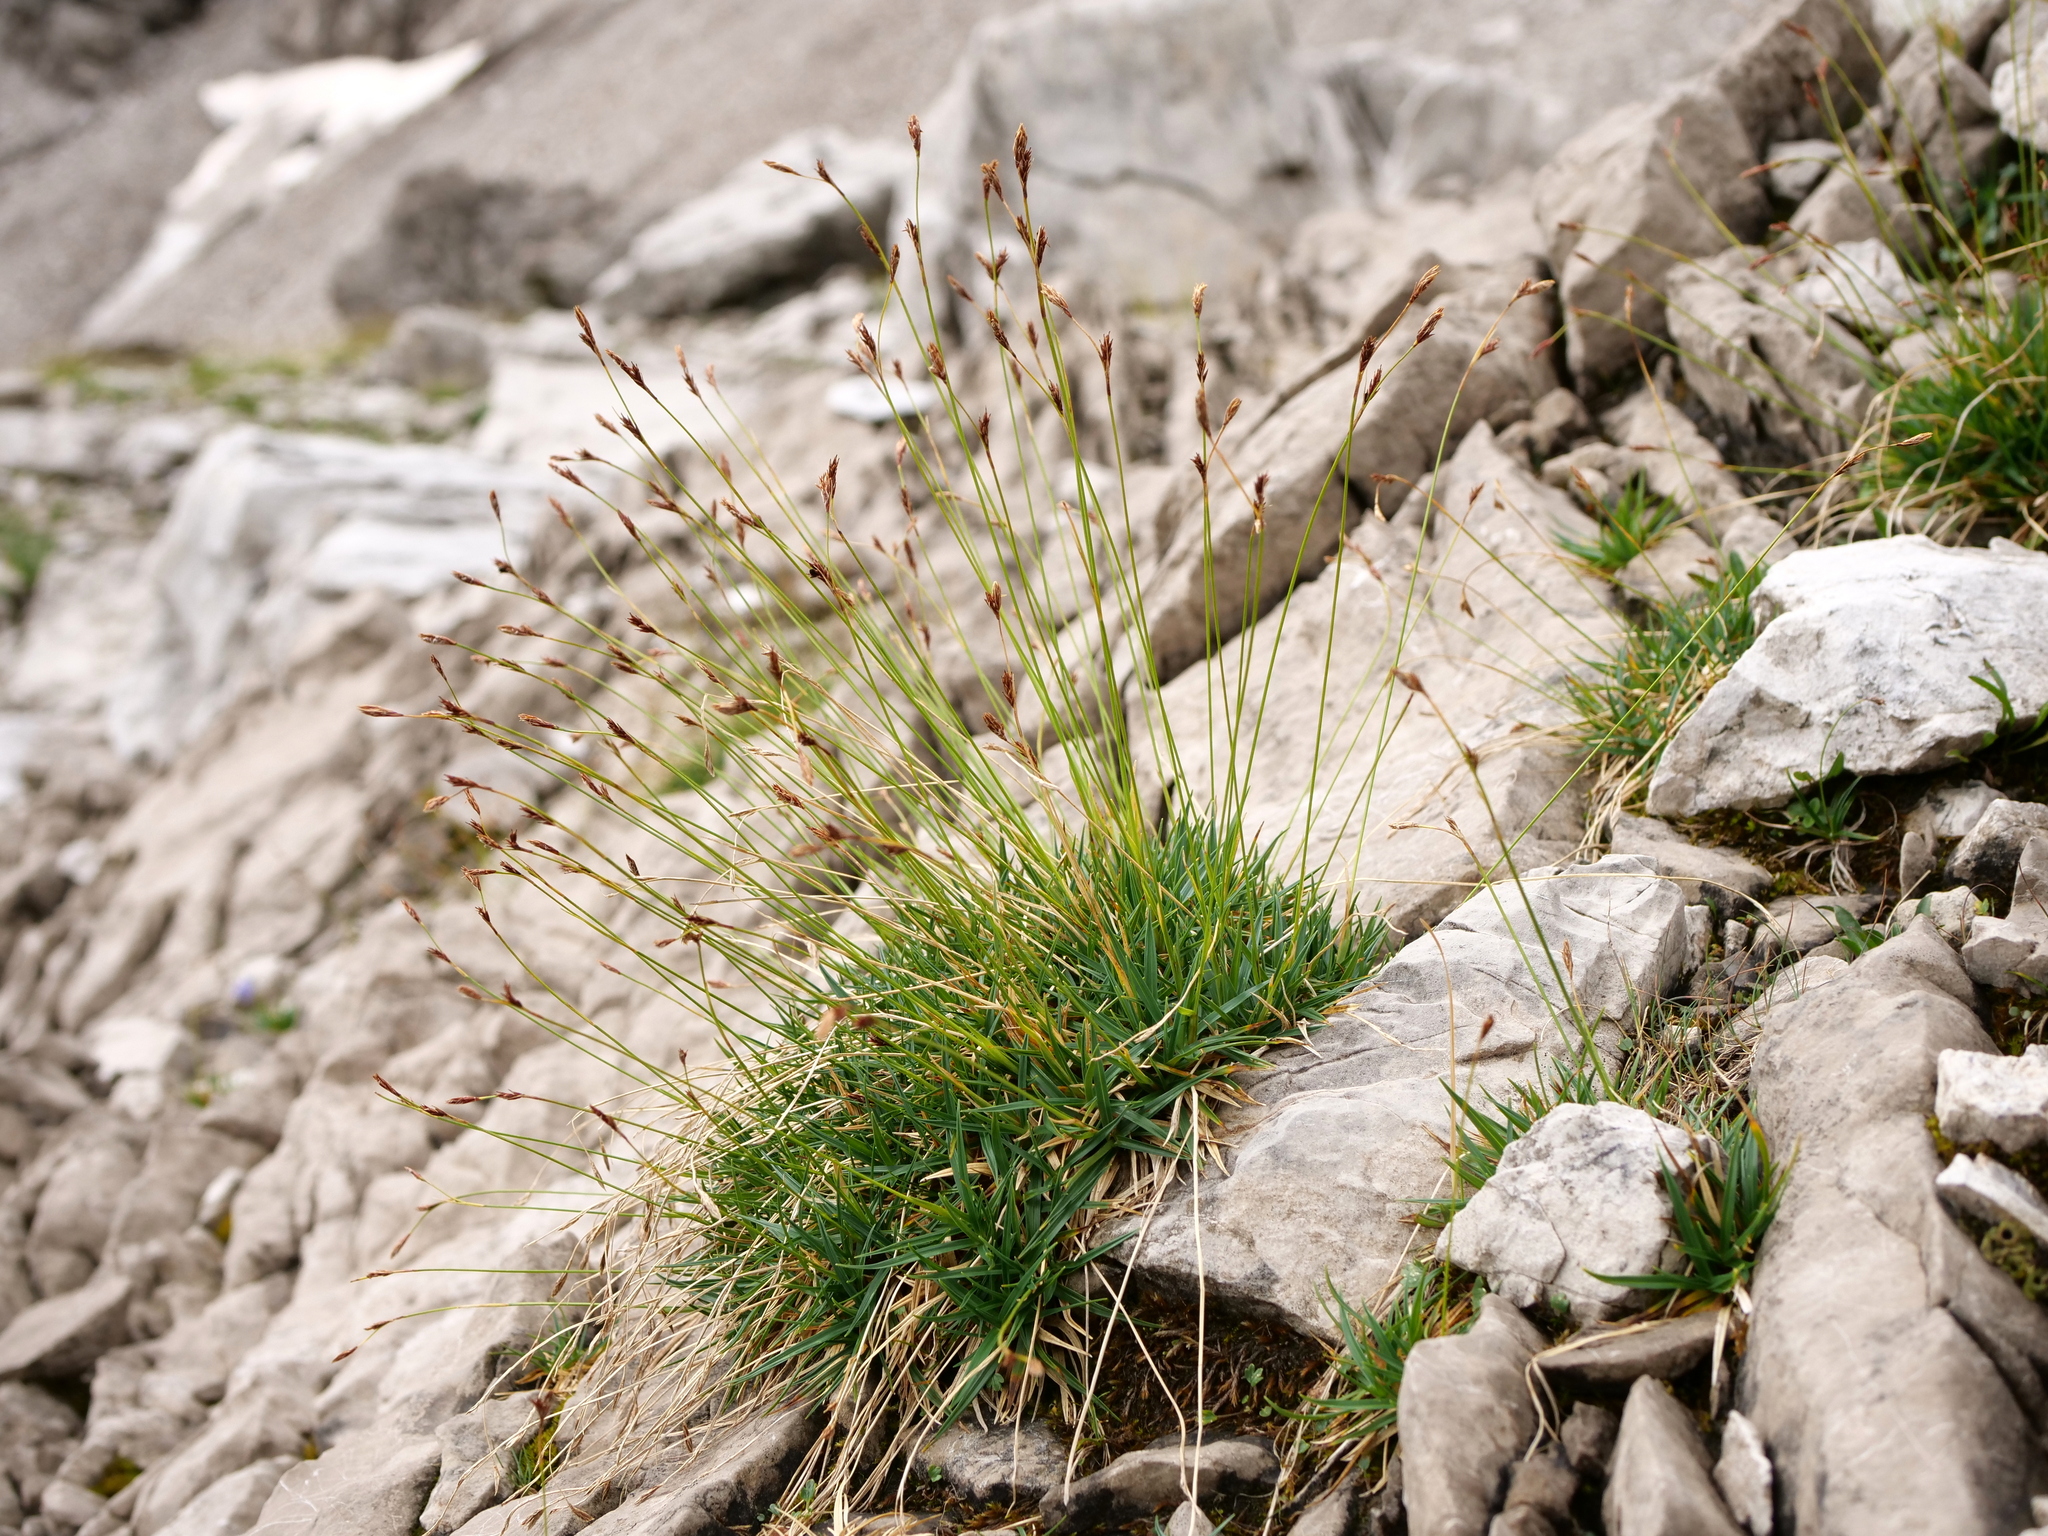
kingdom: Plantae
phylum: Tracheophyta
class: Liliopsida
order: Poales
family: Cyperaceae
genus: Carex
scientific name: Carex firma
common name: Dwarf pillow sedge
